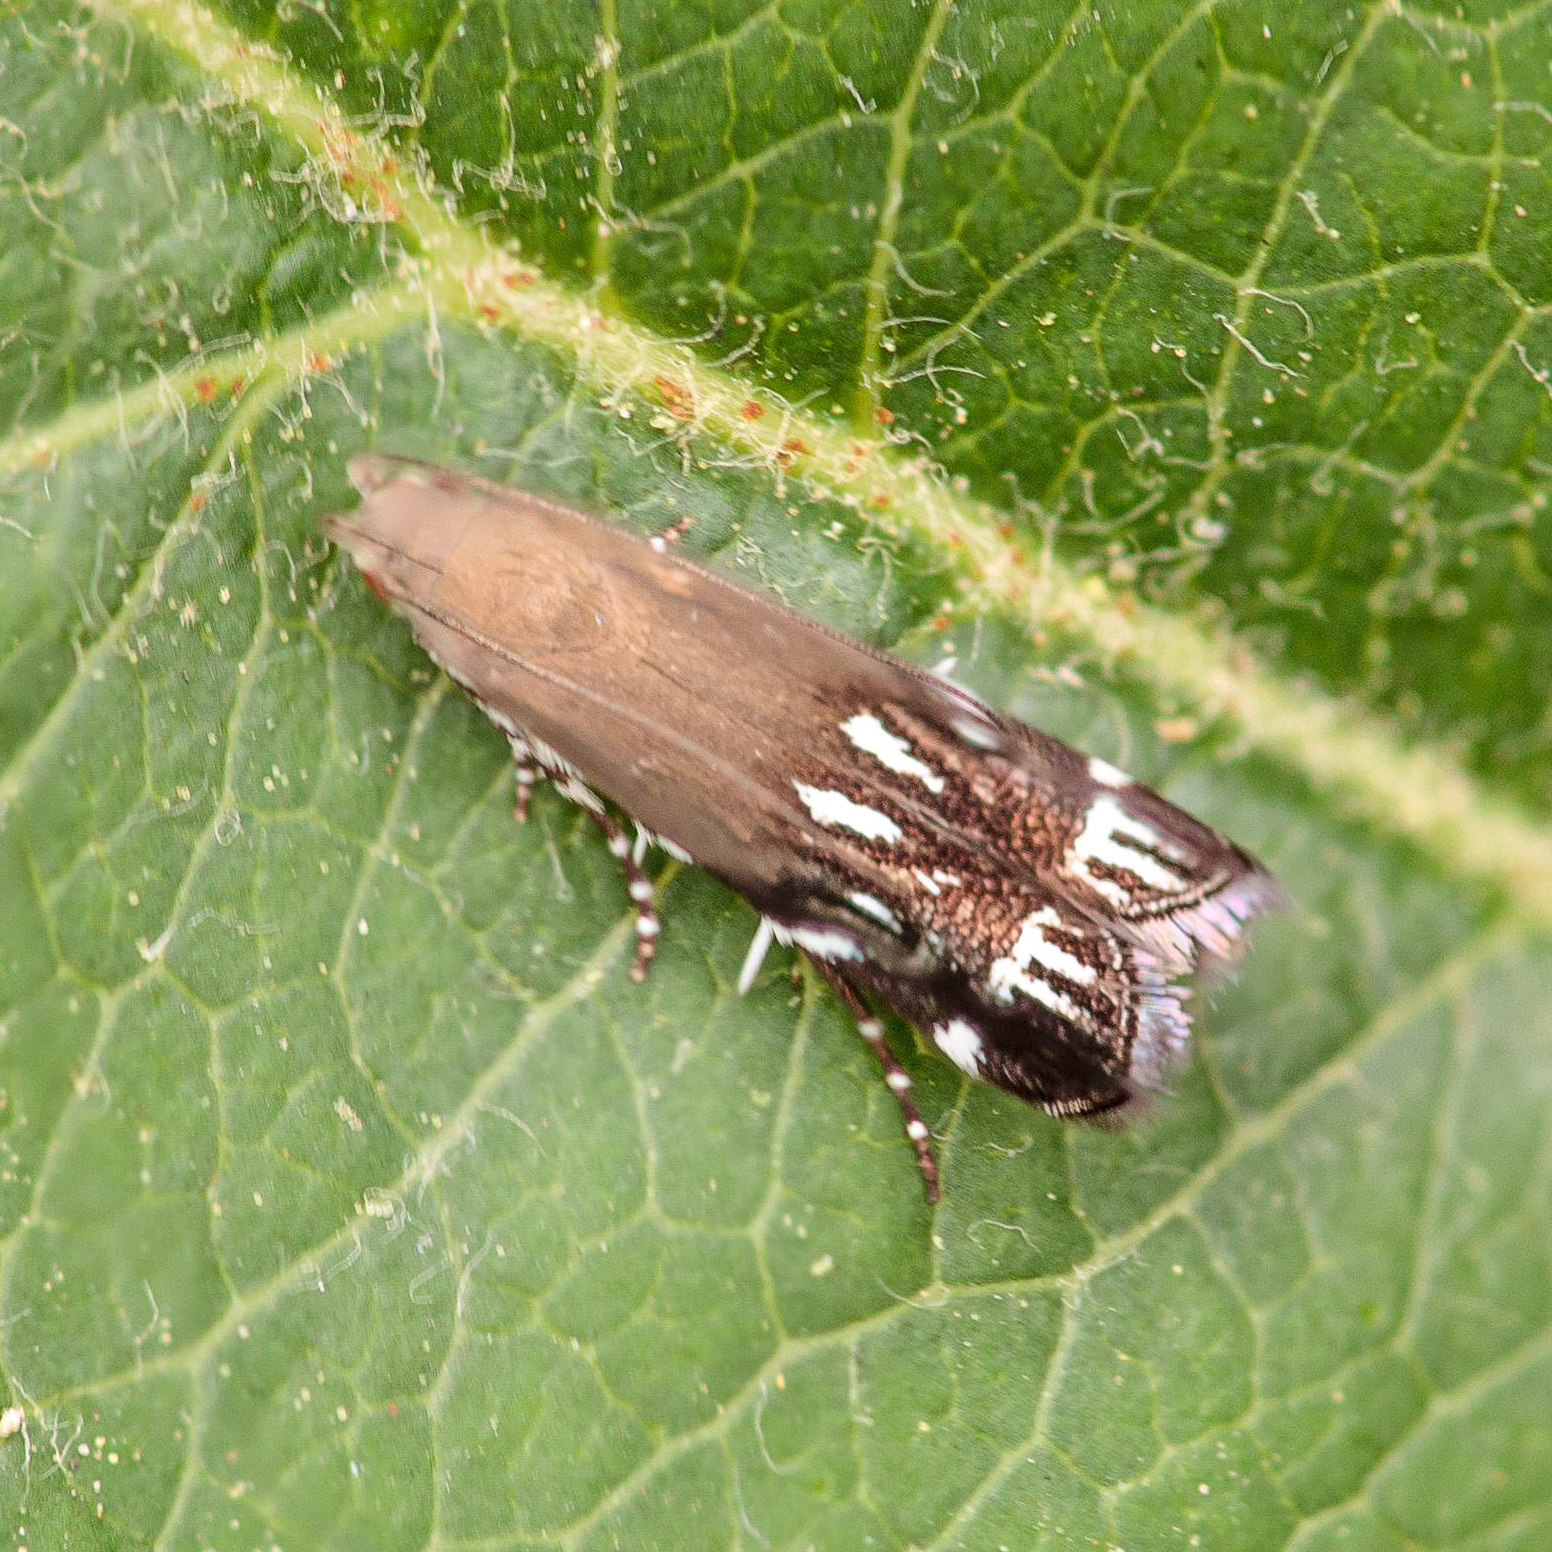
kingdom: Animalia
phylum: Arthropoda
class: Insecta
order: Lepidoptera
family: Gelechiidae
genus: Anacampsis
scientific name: Anacampsis levipedella
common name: Silver-dashed anacampsis
